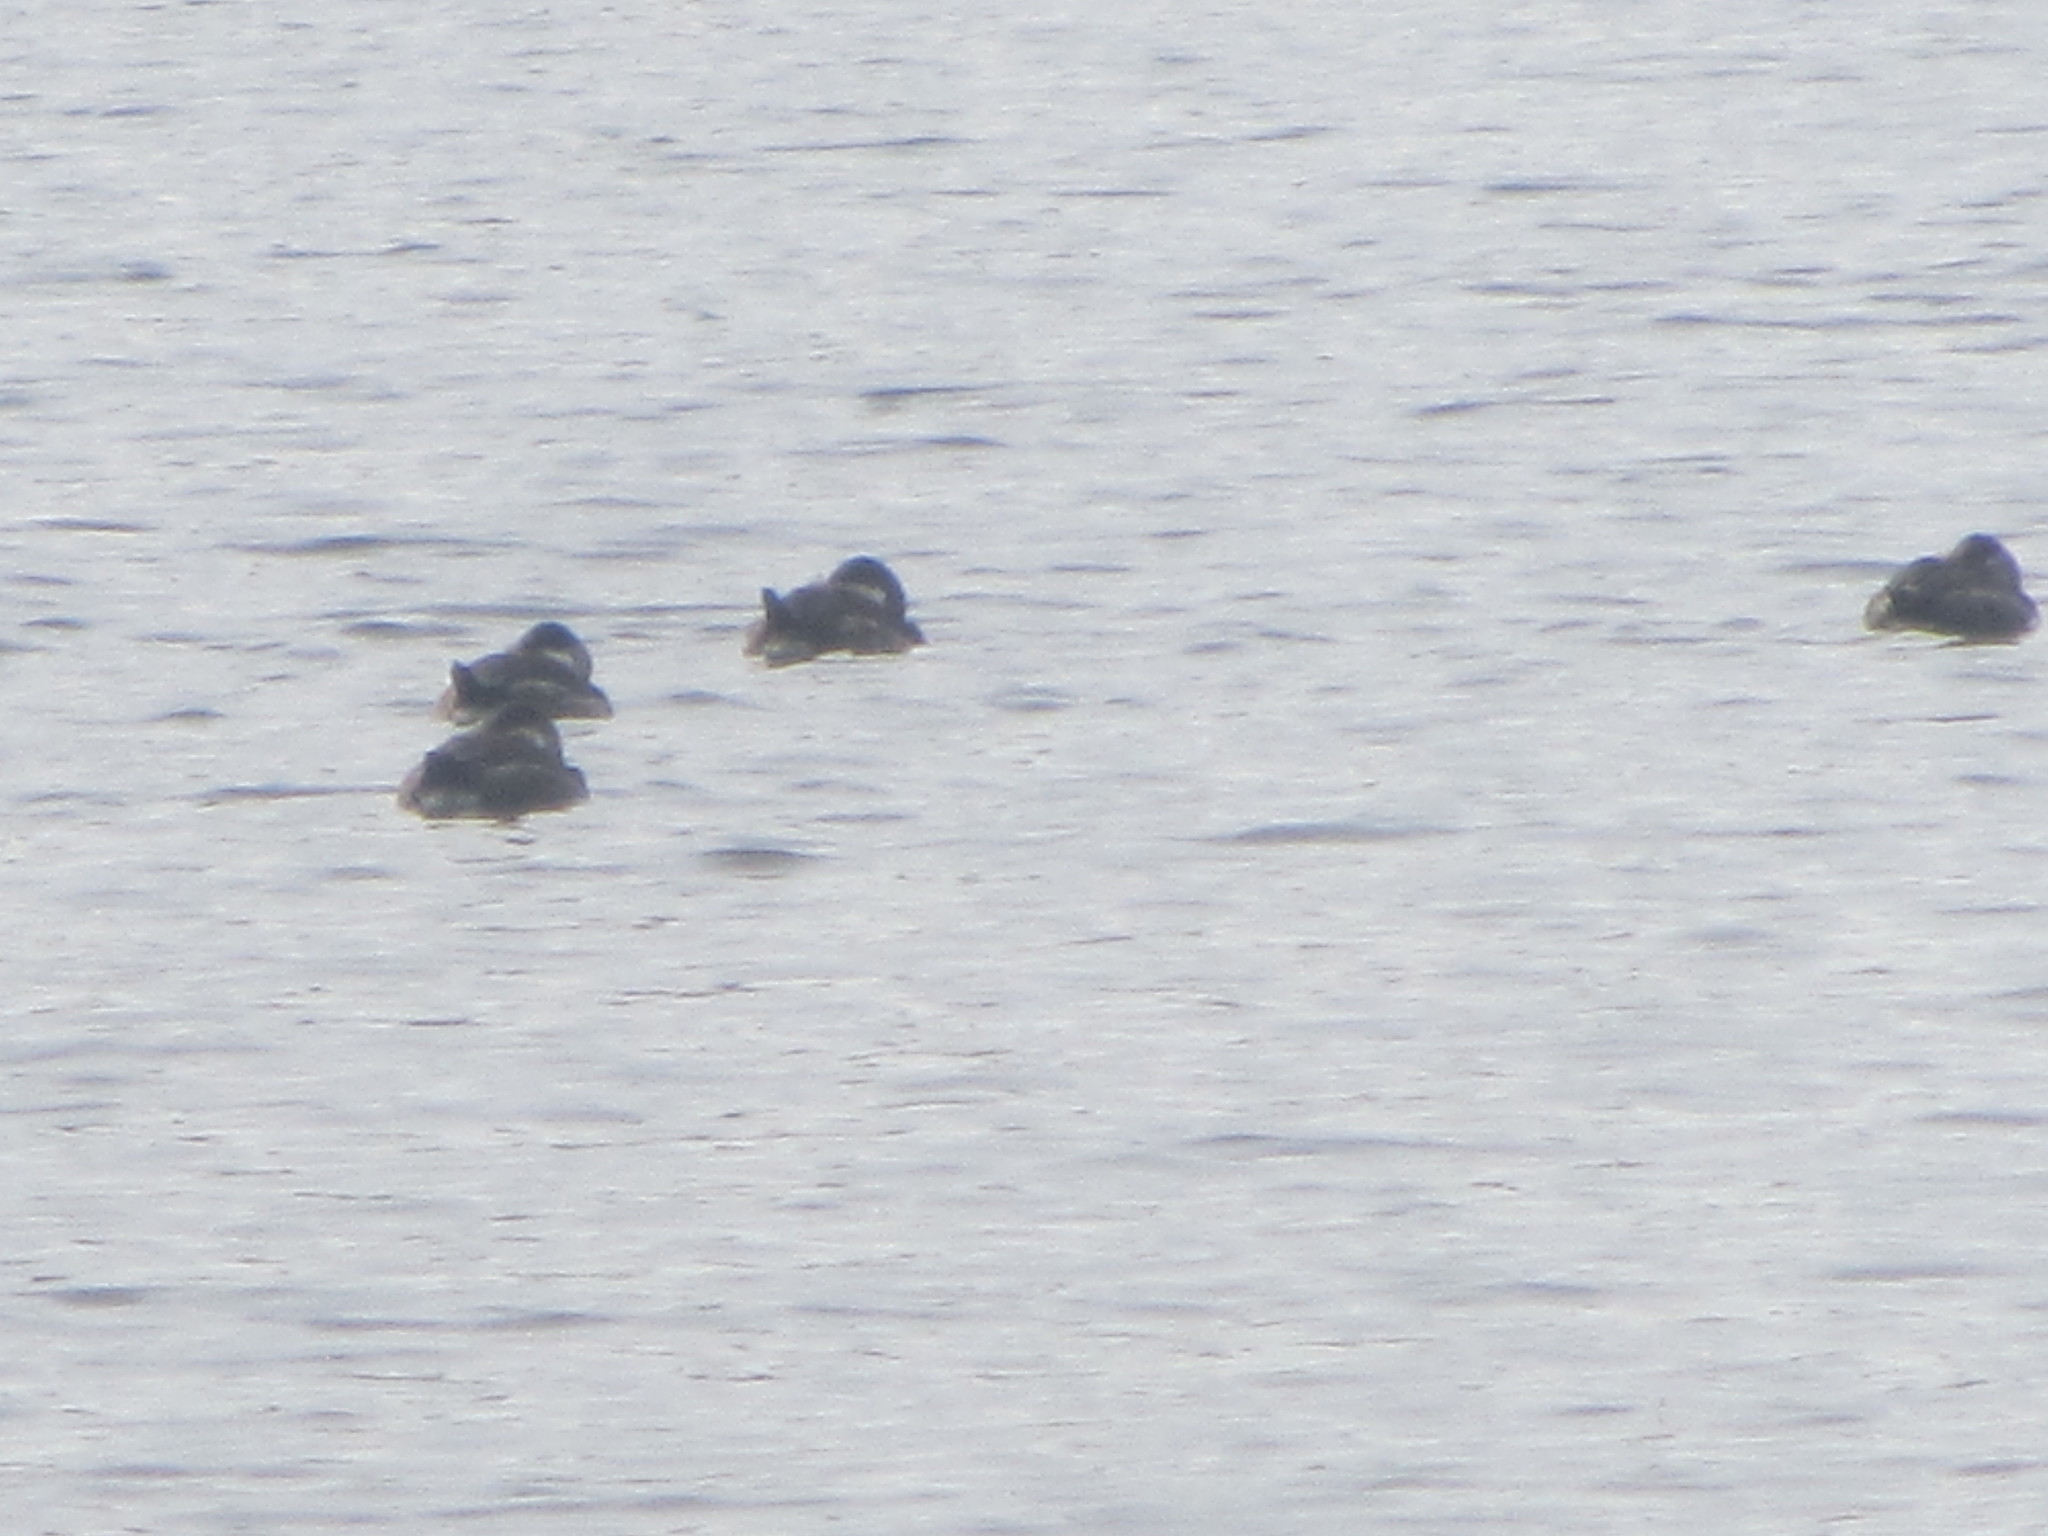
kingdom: Animalia
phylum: Chordata
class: Aves
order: Anseriformes
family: Anatidae
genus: Oxyura
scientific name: Oxyura jamaicensis
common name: Ruddy duck
